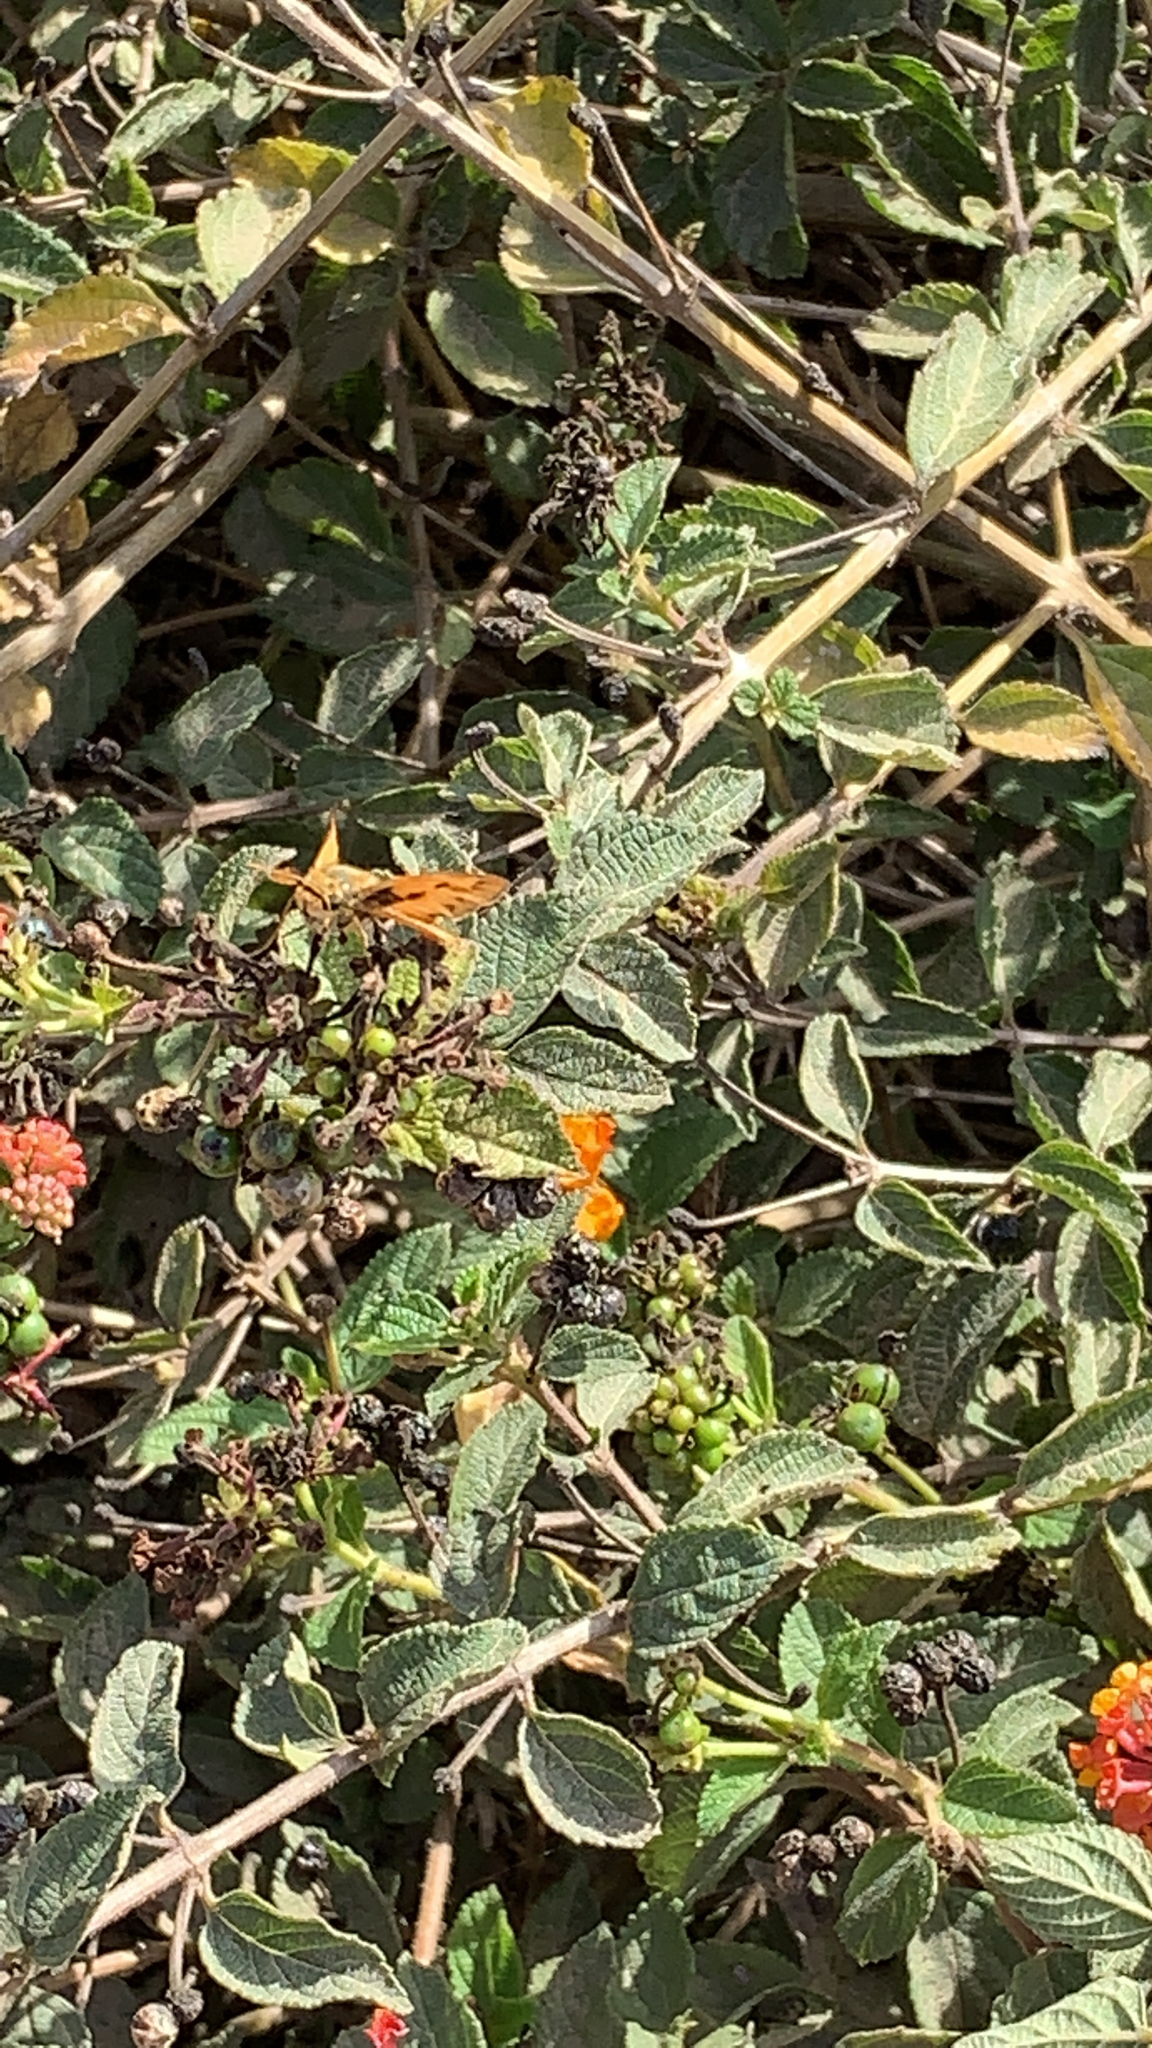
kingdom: Animalia
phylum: Arthropoda
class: Insecta
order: Lepidoptera
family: Hesperiidae
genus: Hylephila
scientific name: Hylephila phyleus
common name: Fiery skipper
